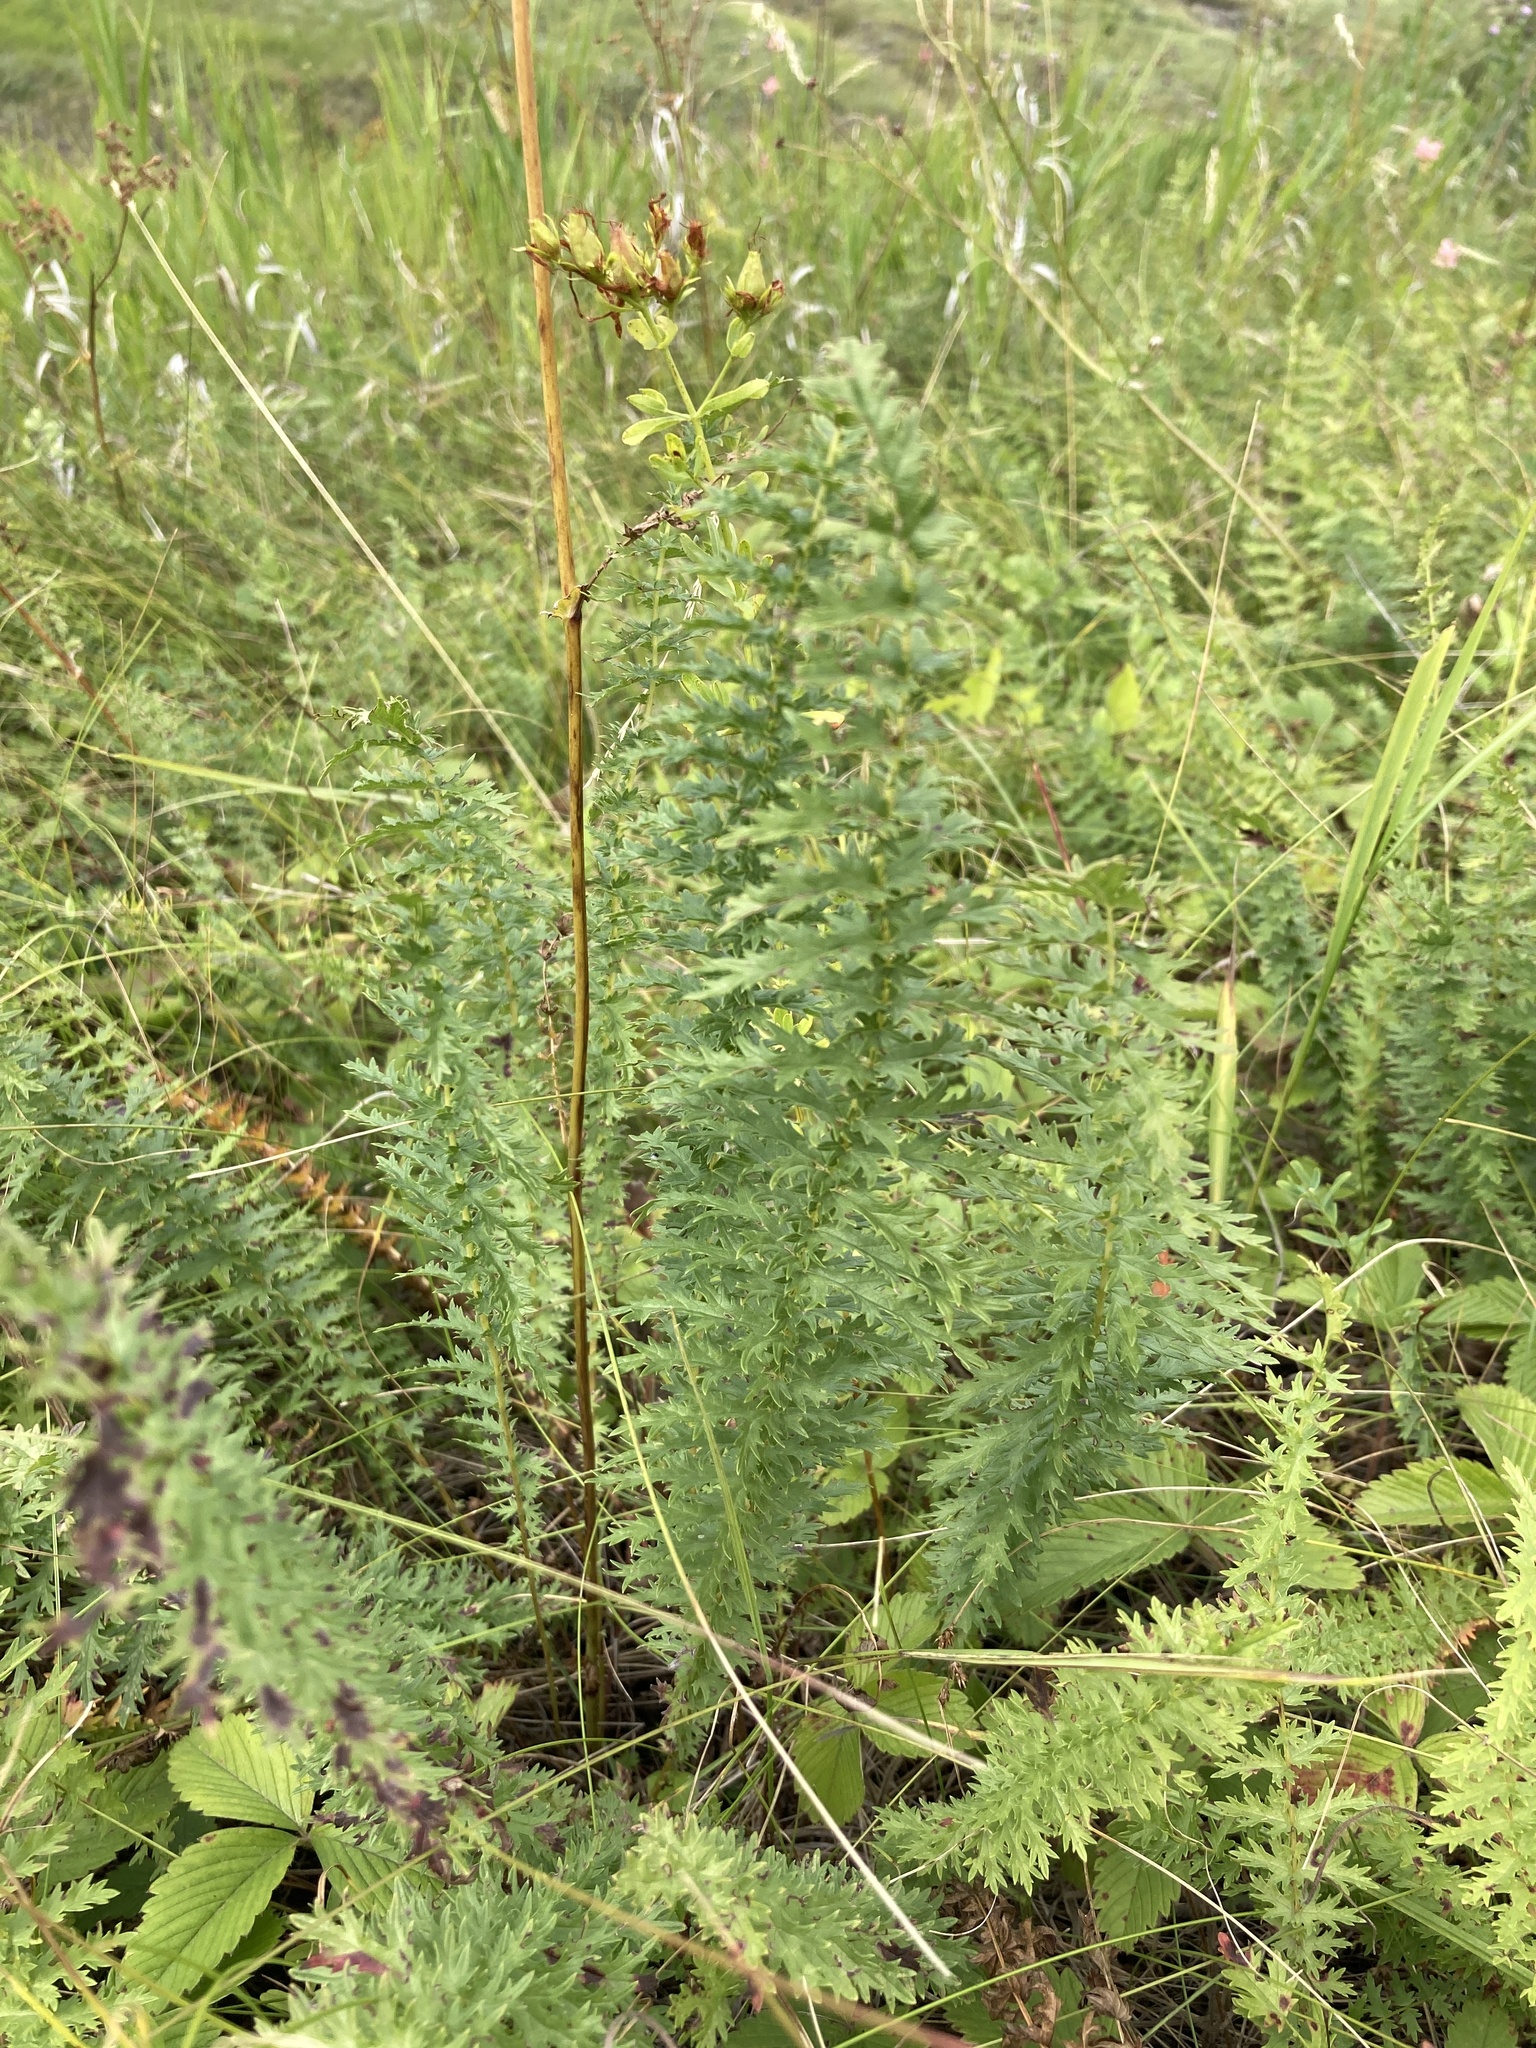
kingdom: Plantae
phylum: Tracheophyta
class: Magnoliopsida
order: Rosales
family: Rosaceae
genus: Filipendula
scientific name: Filipendula vulgaris
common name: Dropwort
